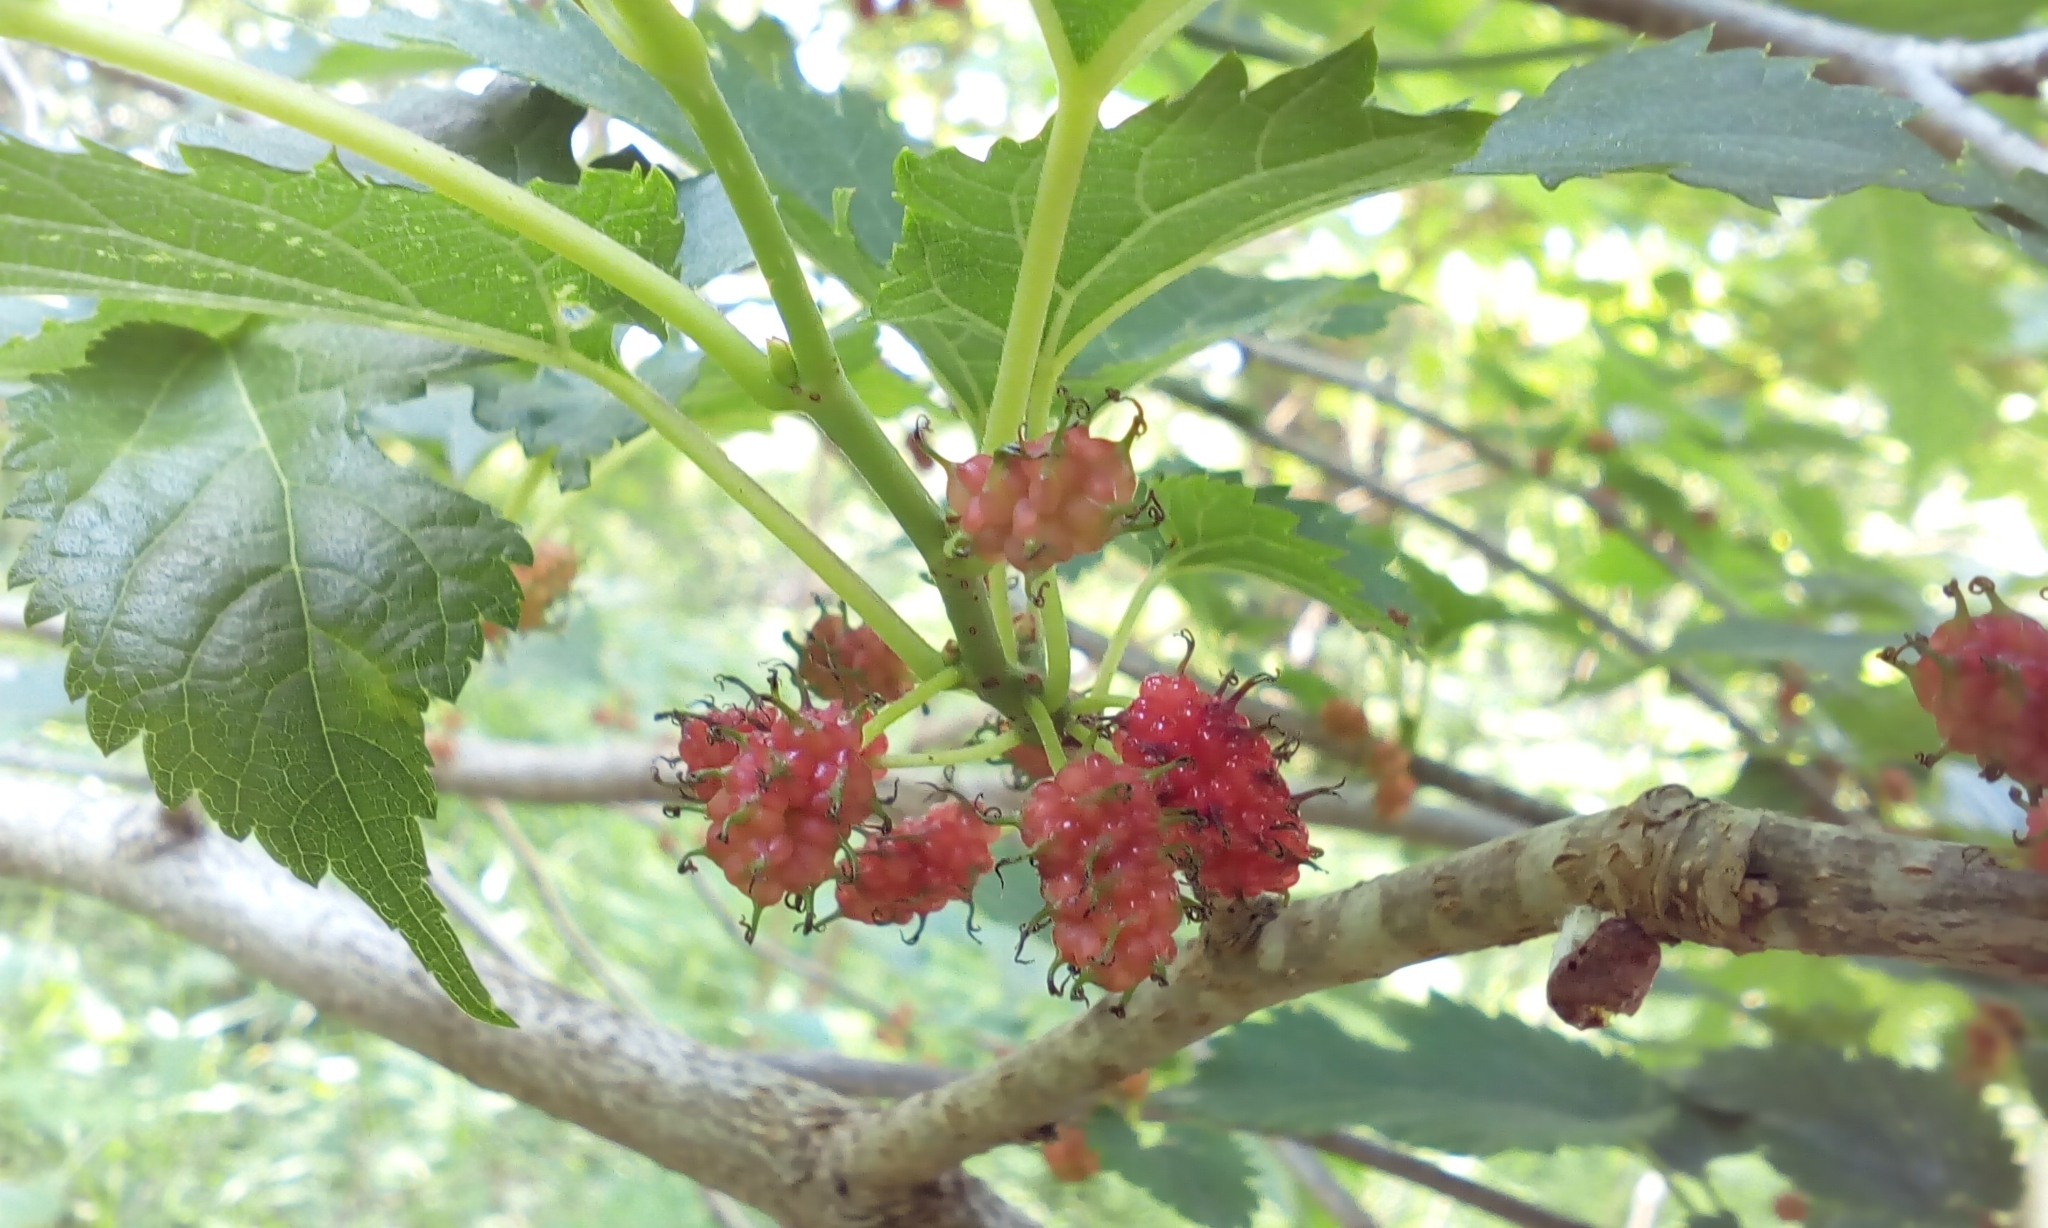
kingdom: Plantae
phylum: Tracheophyta
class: Magnoliopsida
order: Rosales
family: Moraceae
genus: Morus
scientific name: Morus indica
